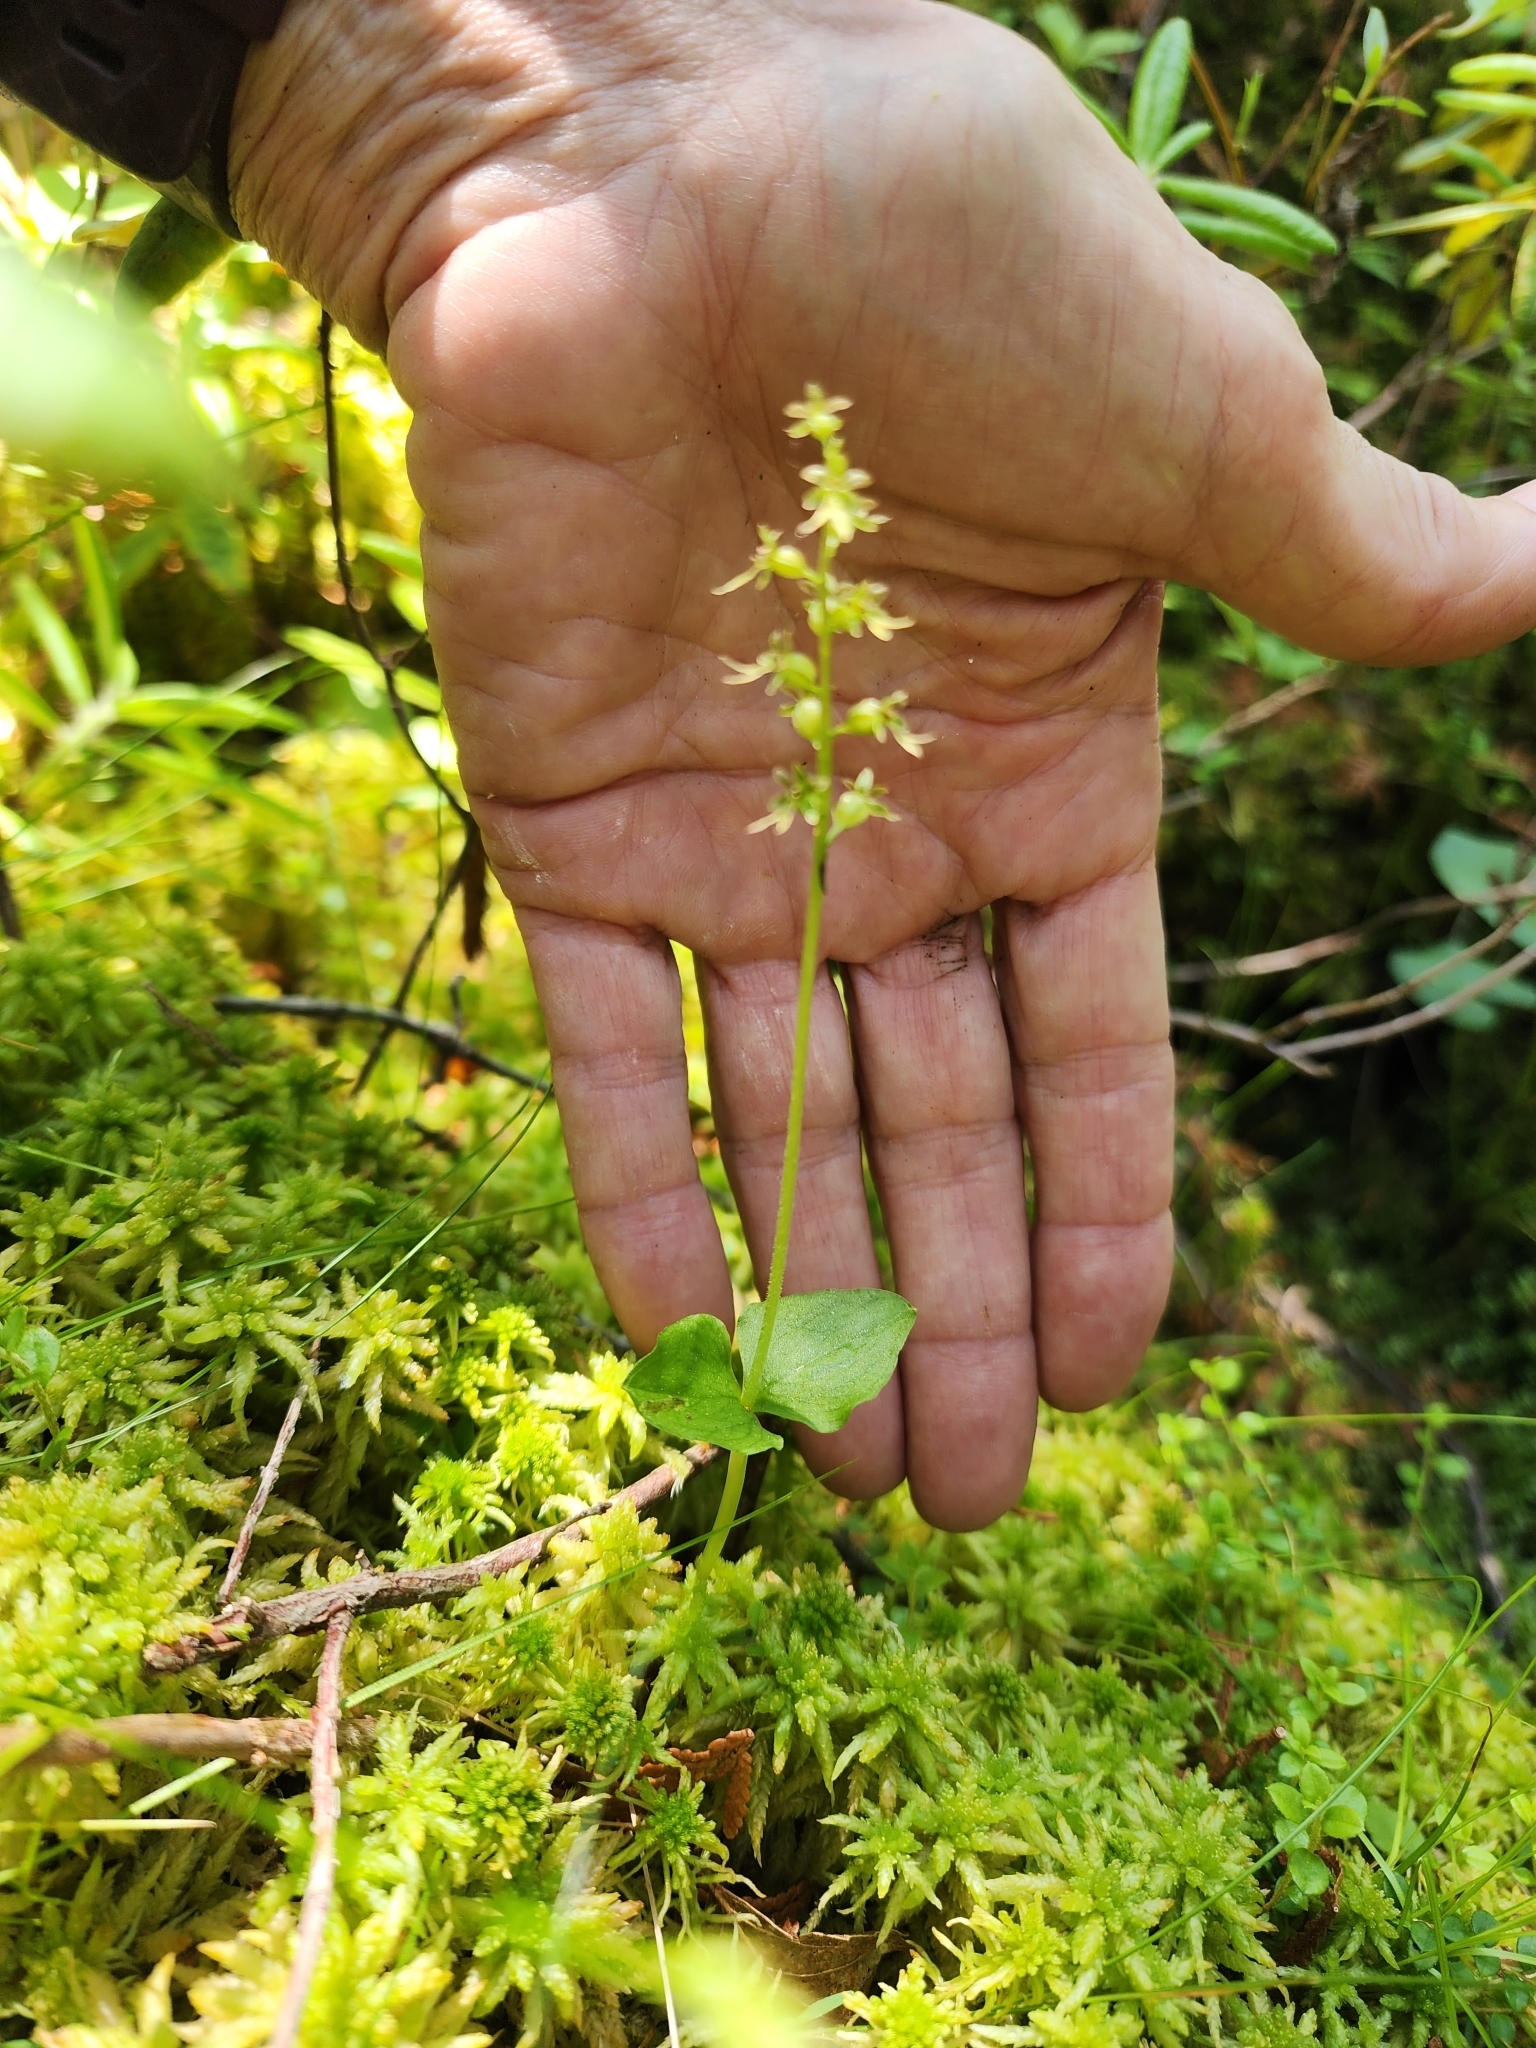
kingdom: Plantae
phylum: Tracheophyta
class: Liliopsida
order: Asparagales
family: Orchidaceae
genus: Neottia
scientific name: Neottia cordata
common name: Lesser twayblade
